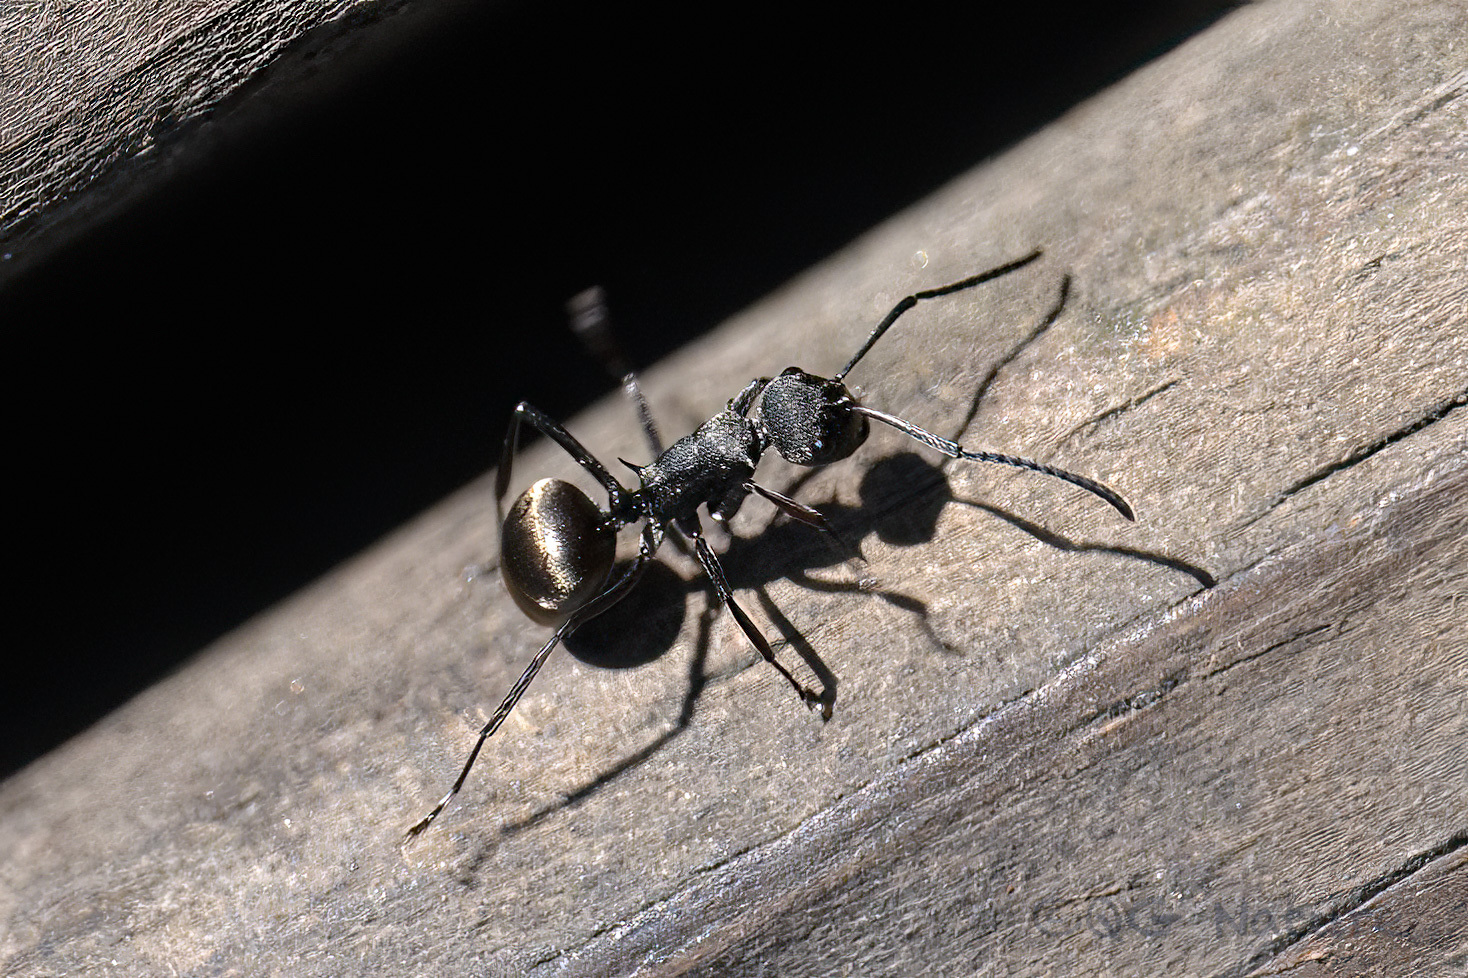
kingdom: Animalia
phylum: Arthropoda
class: Insecta
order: Hymenoptera
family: Formicidae
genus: Polyrhachis
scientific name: Polyrhachis dives
